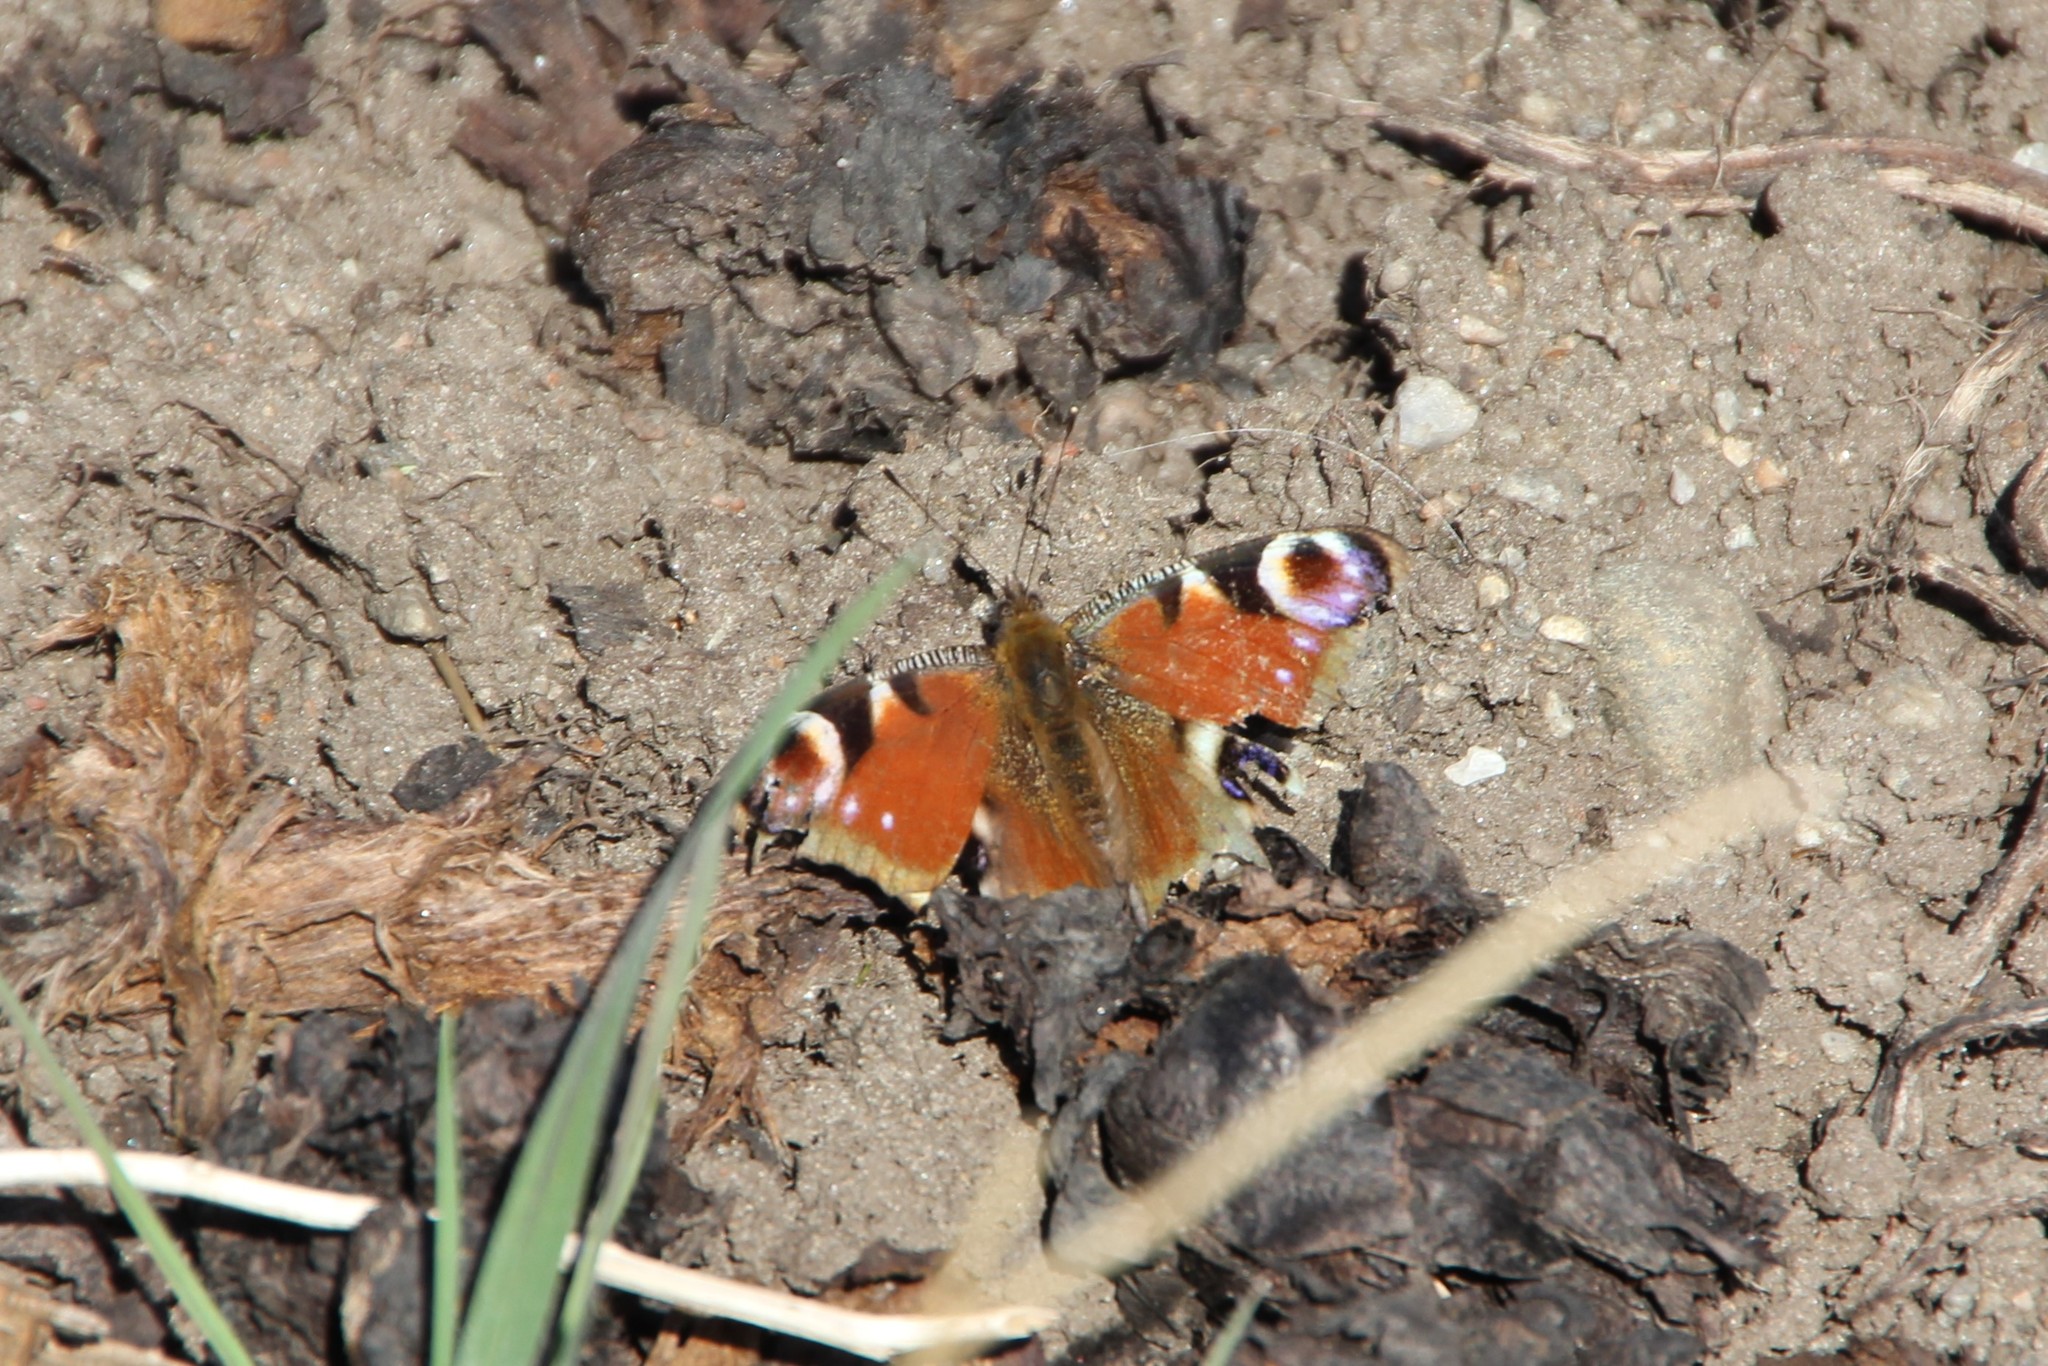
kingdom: Animalia
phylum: Arthropoda
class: Insecta
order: Lepidoptera
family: Nymphalidae
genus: Aglais
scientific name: Aglais io
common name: Peacock
